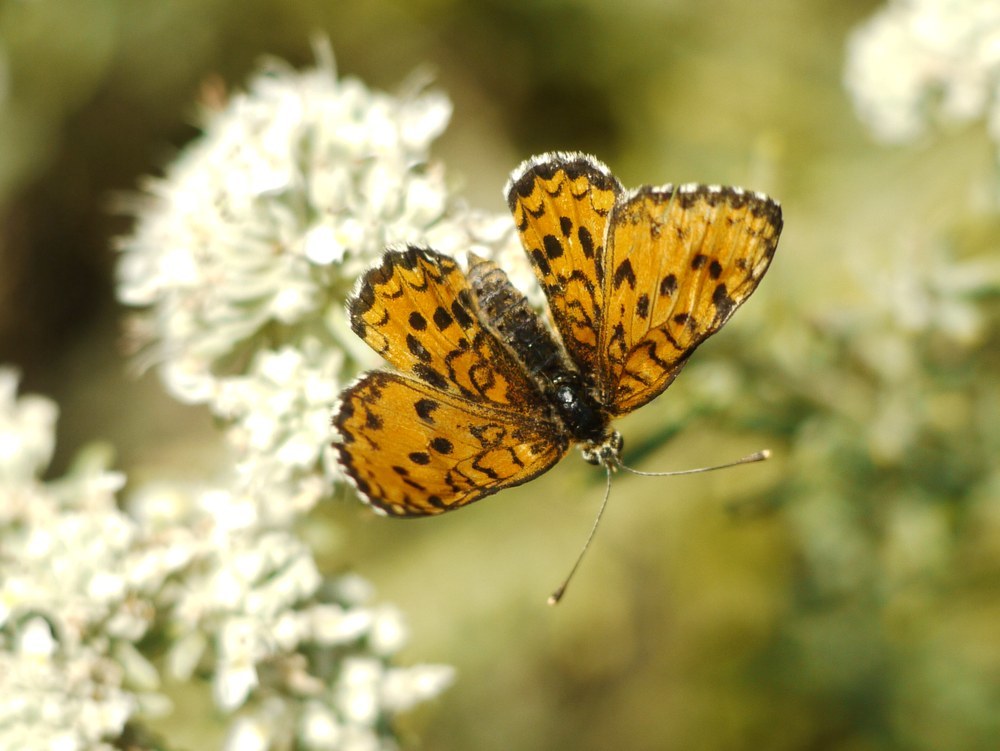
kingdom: Animalia
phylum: Arthropoda
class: Insecta
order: Lepidoptera
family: Nymphalidae
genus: Melitaea
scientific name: Melitaea trivia
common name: Lesser spotted fritillary
